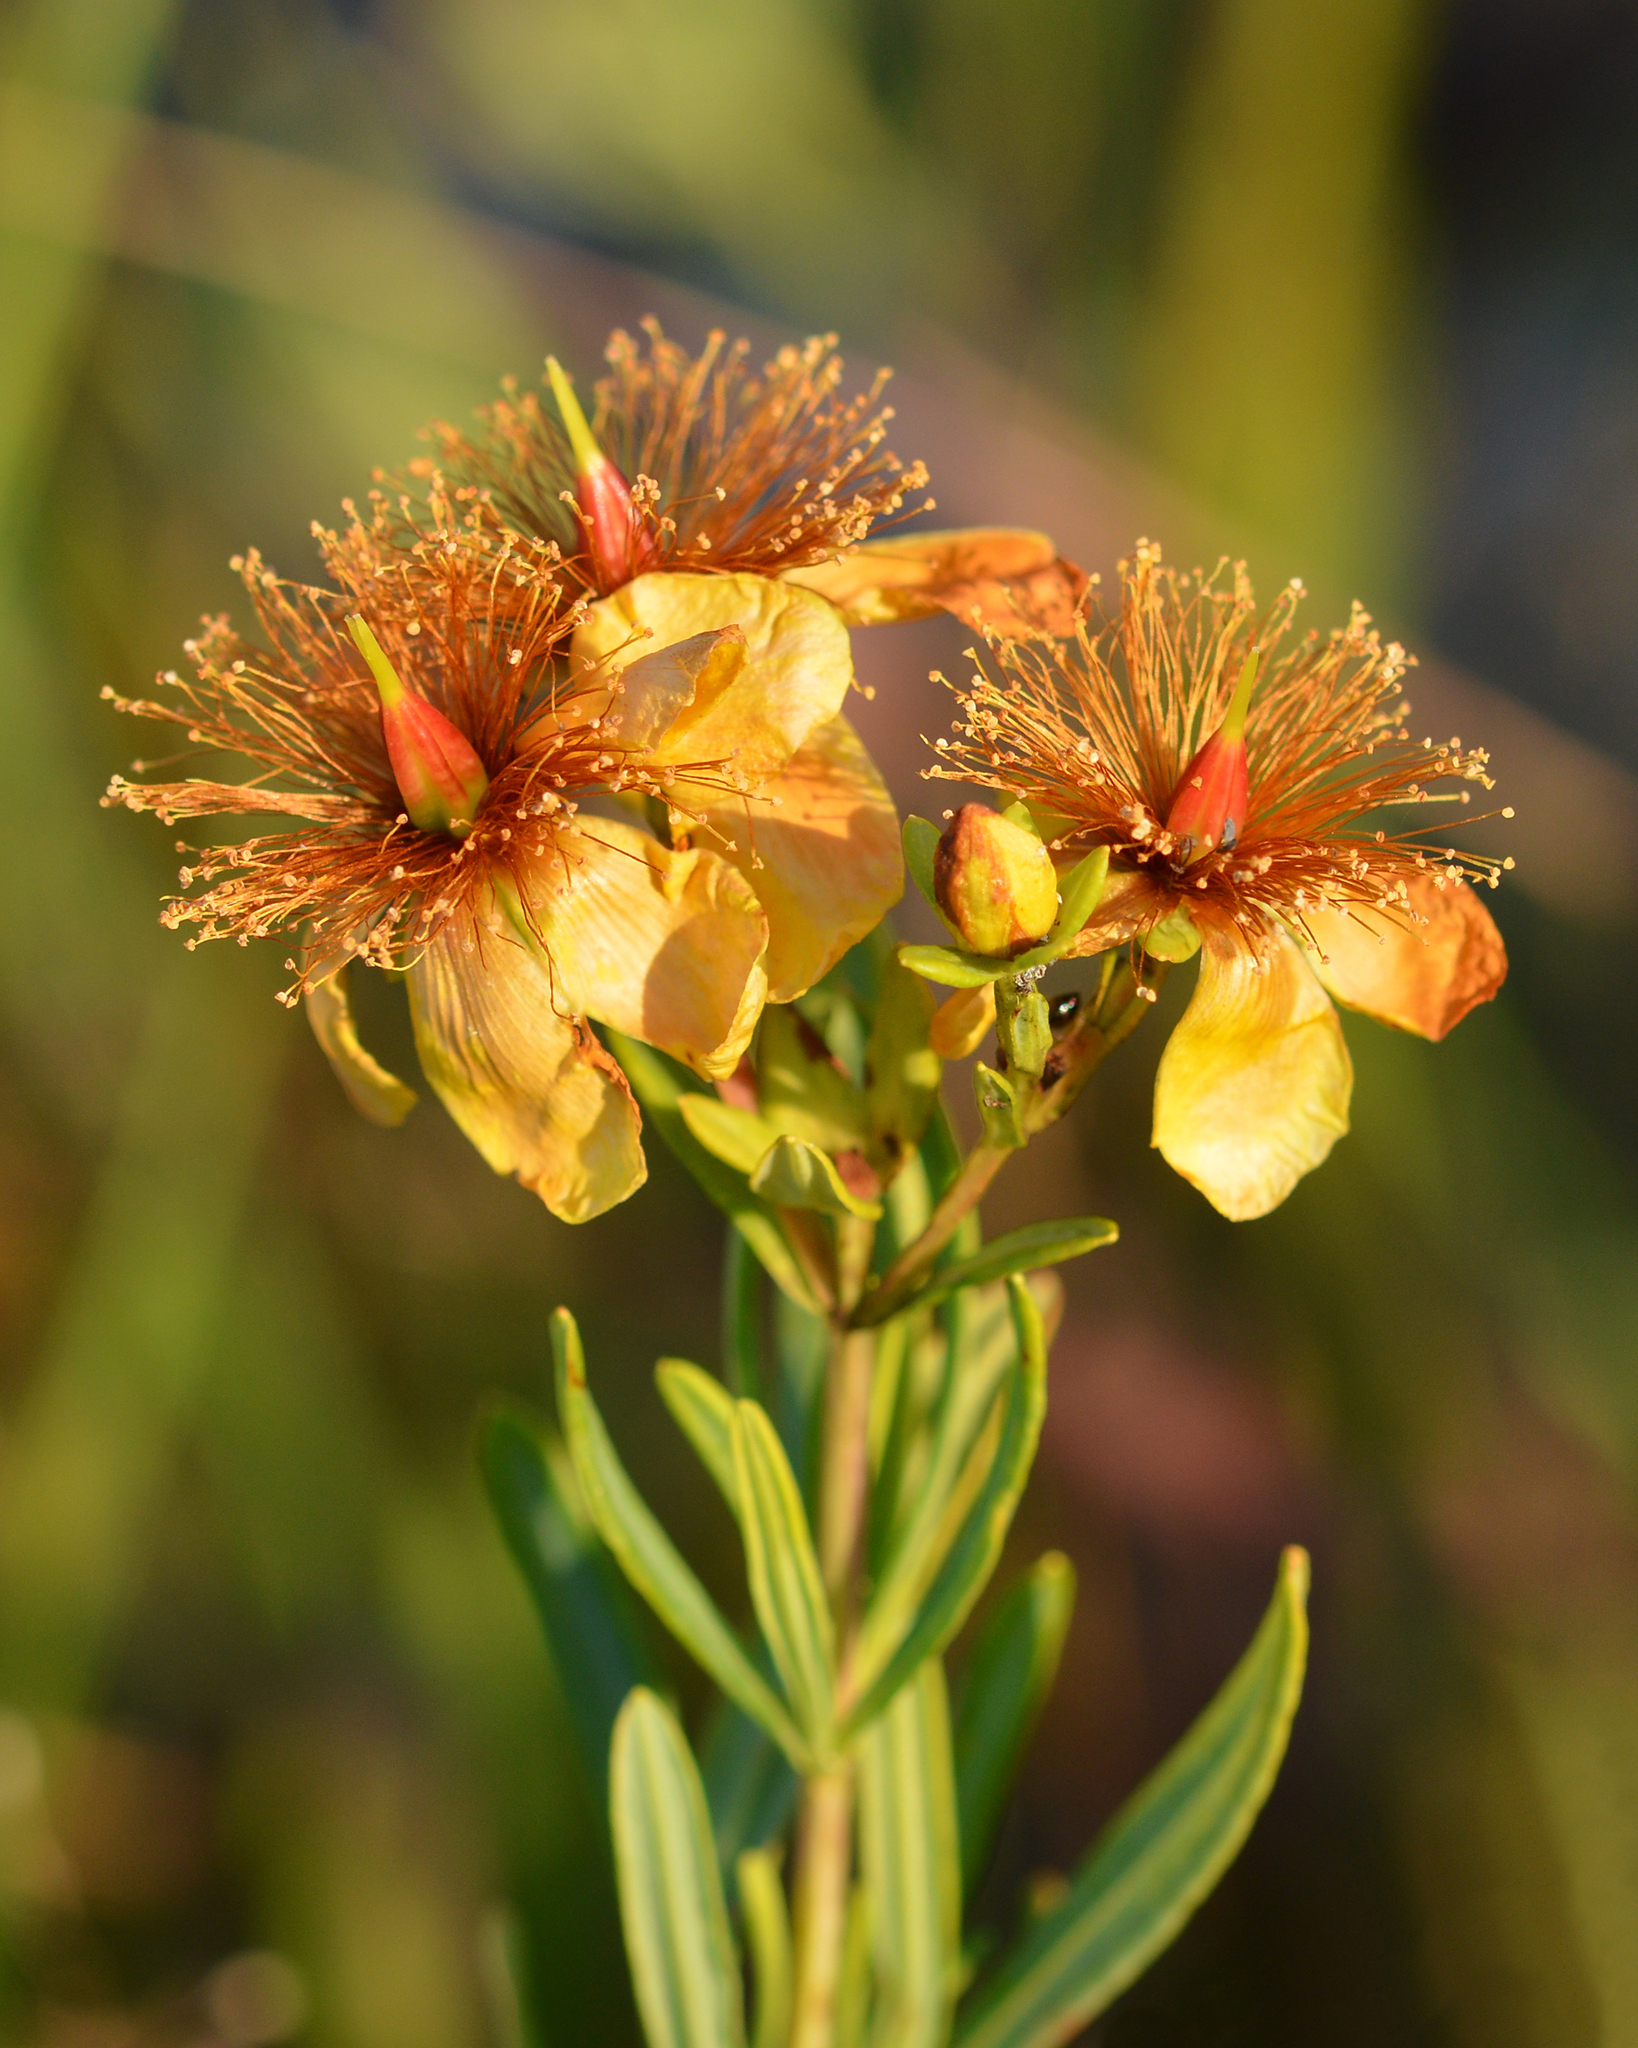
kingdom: Plantae
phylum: Tracheophyta
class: Magnoliopsida
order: Malpighiales
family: Hypericaceae
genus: Hypericum
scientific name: Hypericum kalmianum
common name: Kalm's st. john's-wort
